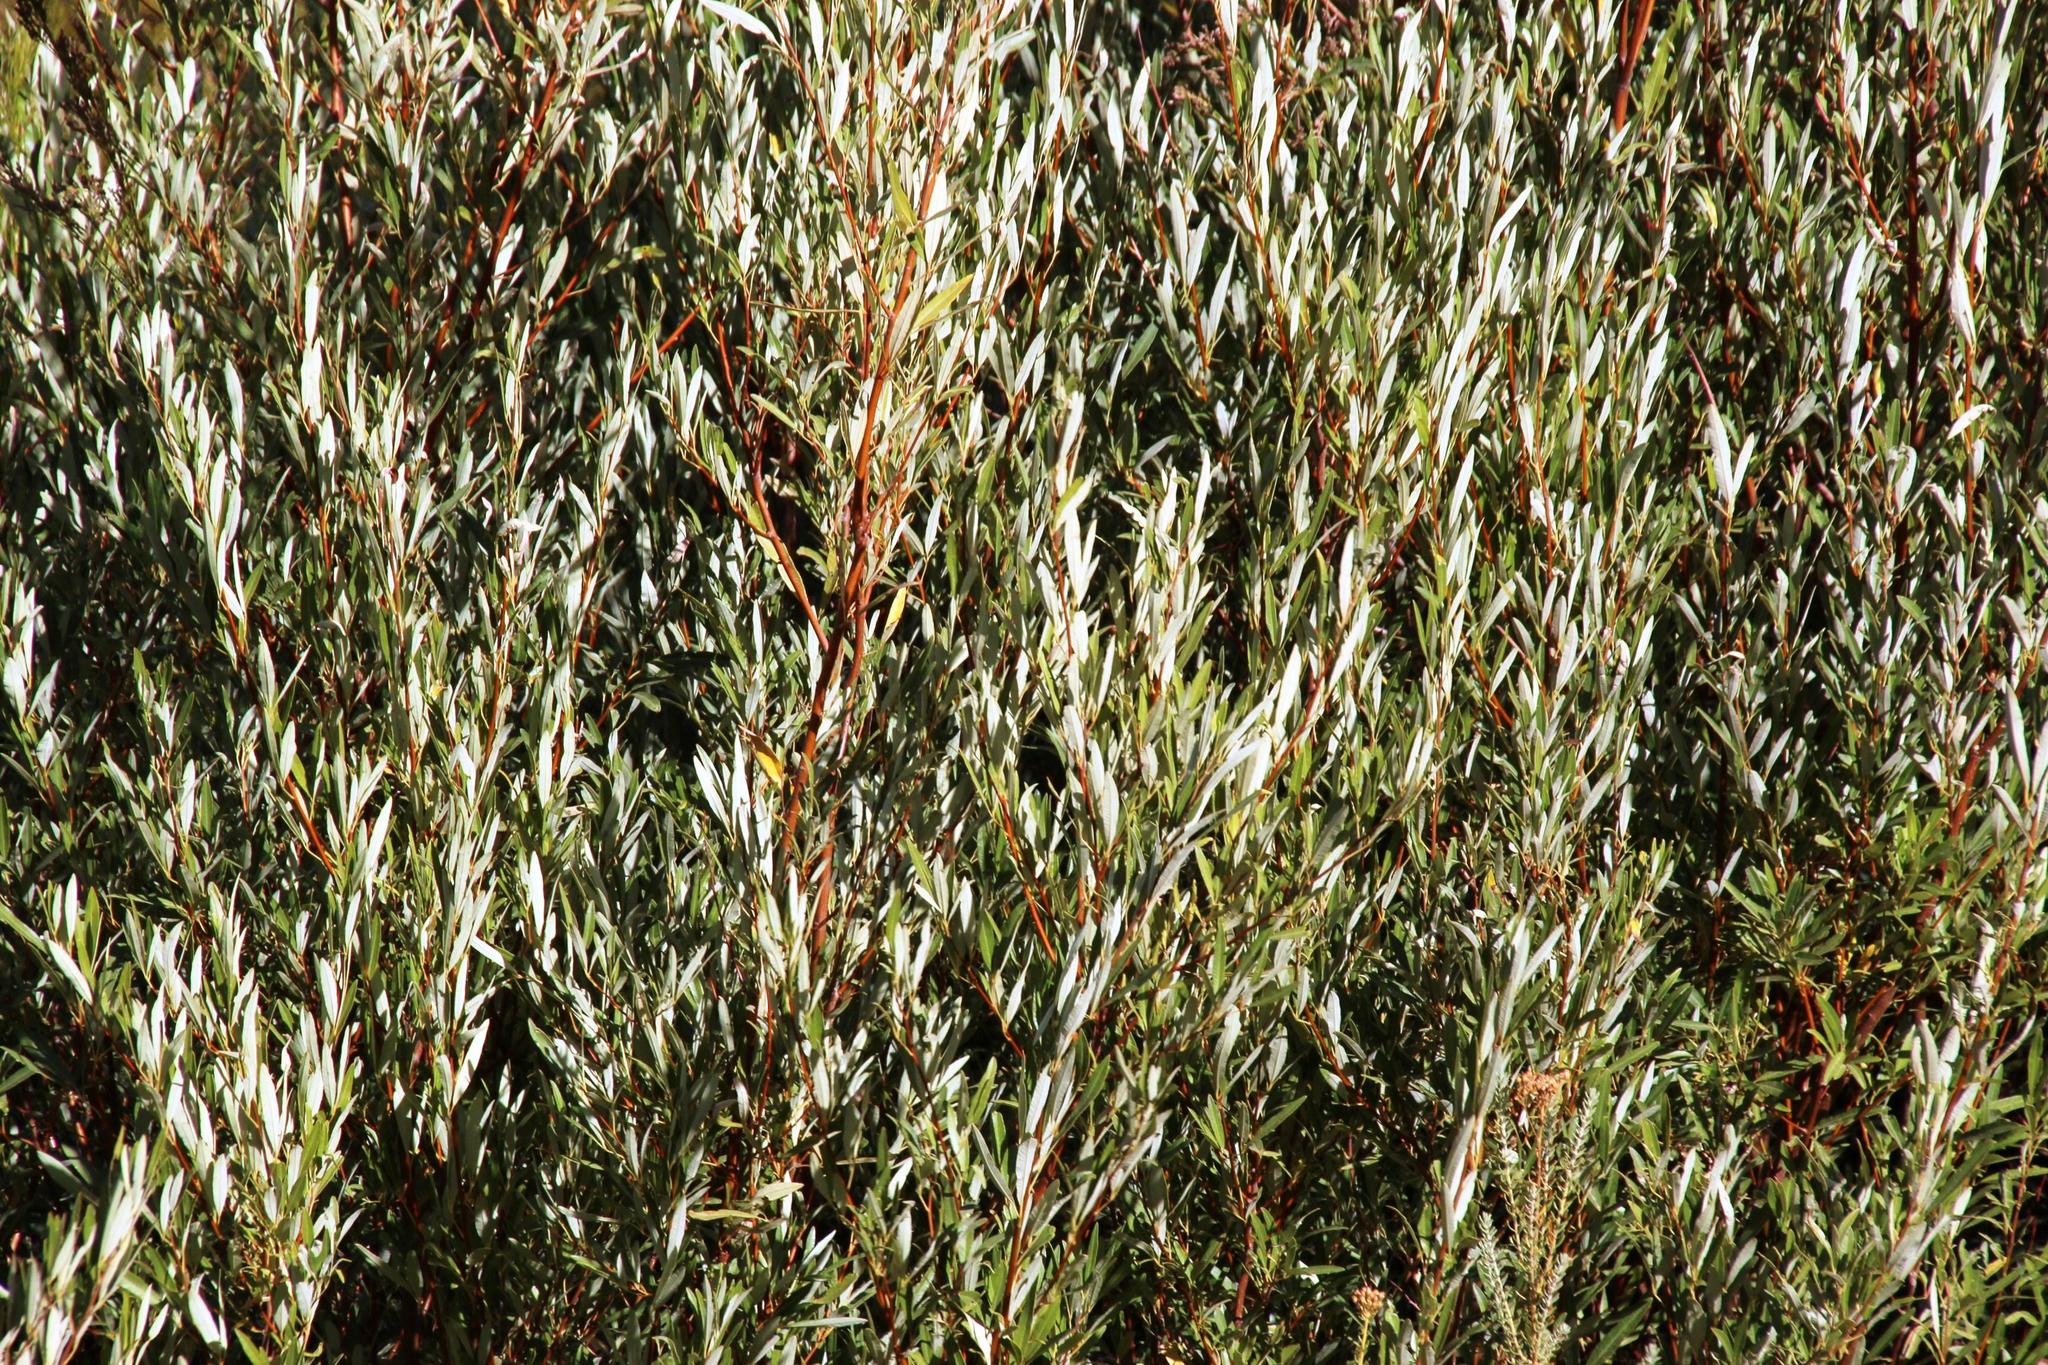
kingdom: Plantae
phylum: Tracheophyta
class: Magnoliopsida
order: Sapindales
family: Anacardiaceae
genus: Searsia
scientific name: Searsia angustifolia
